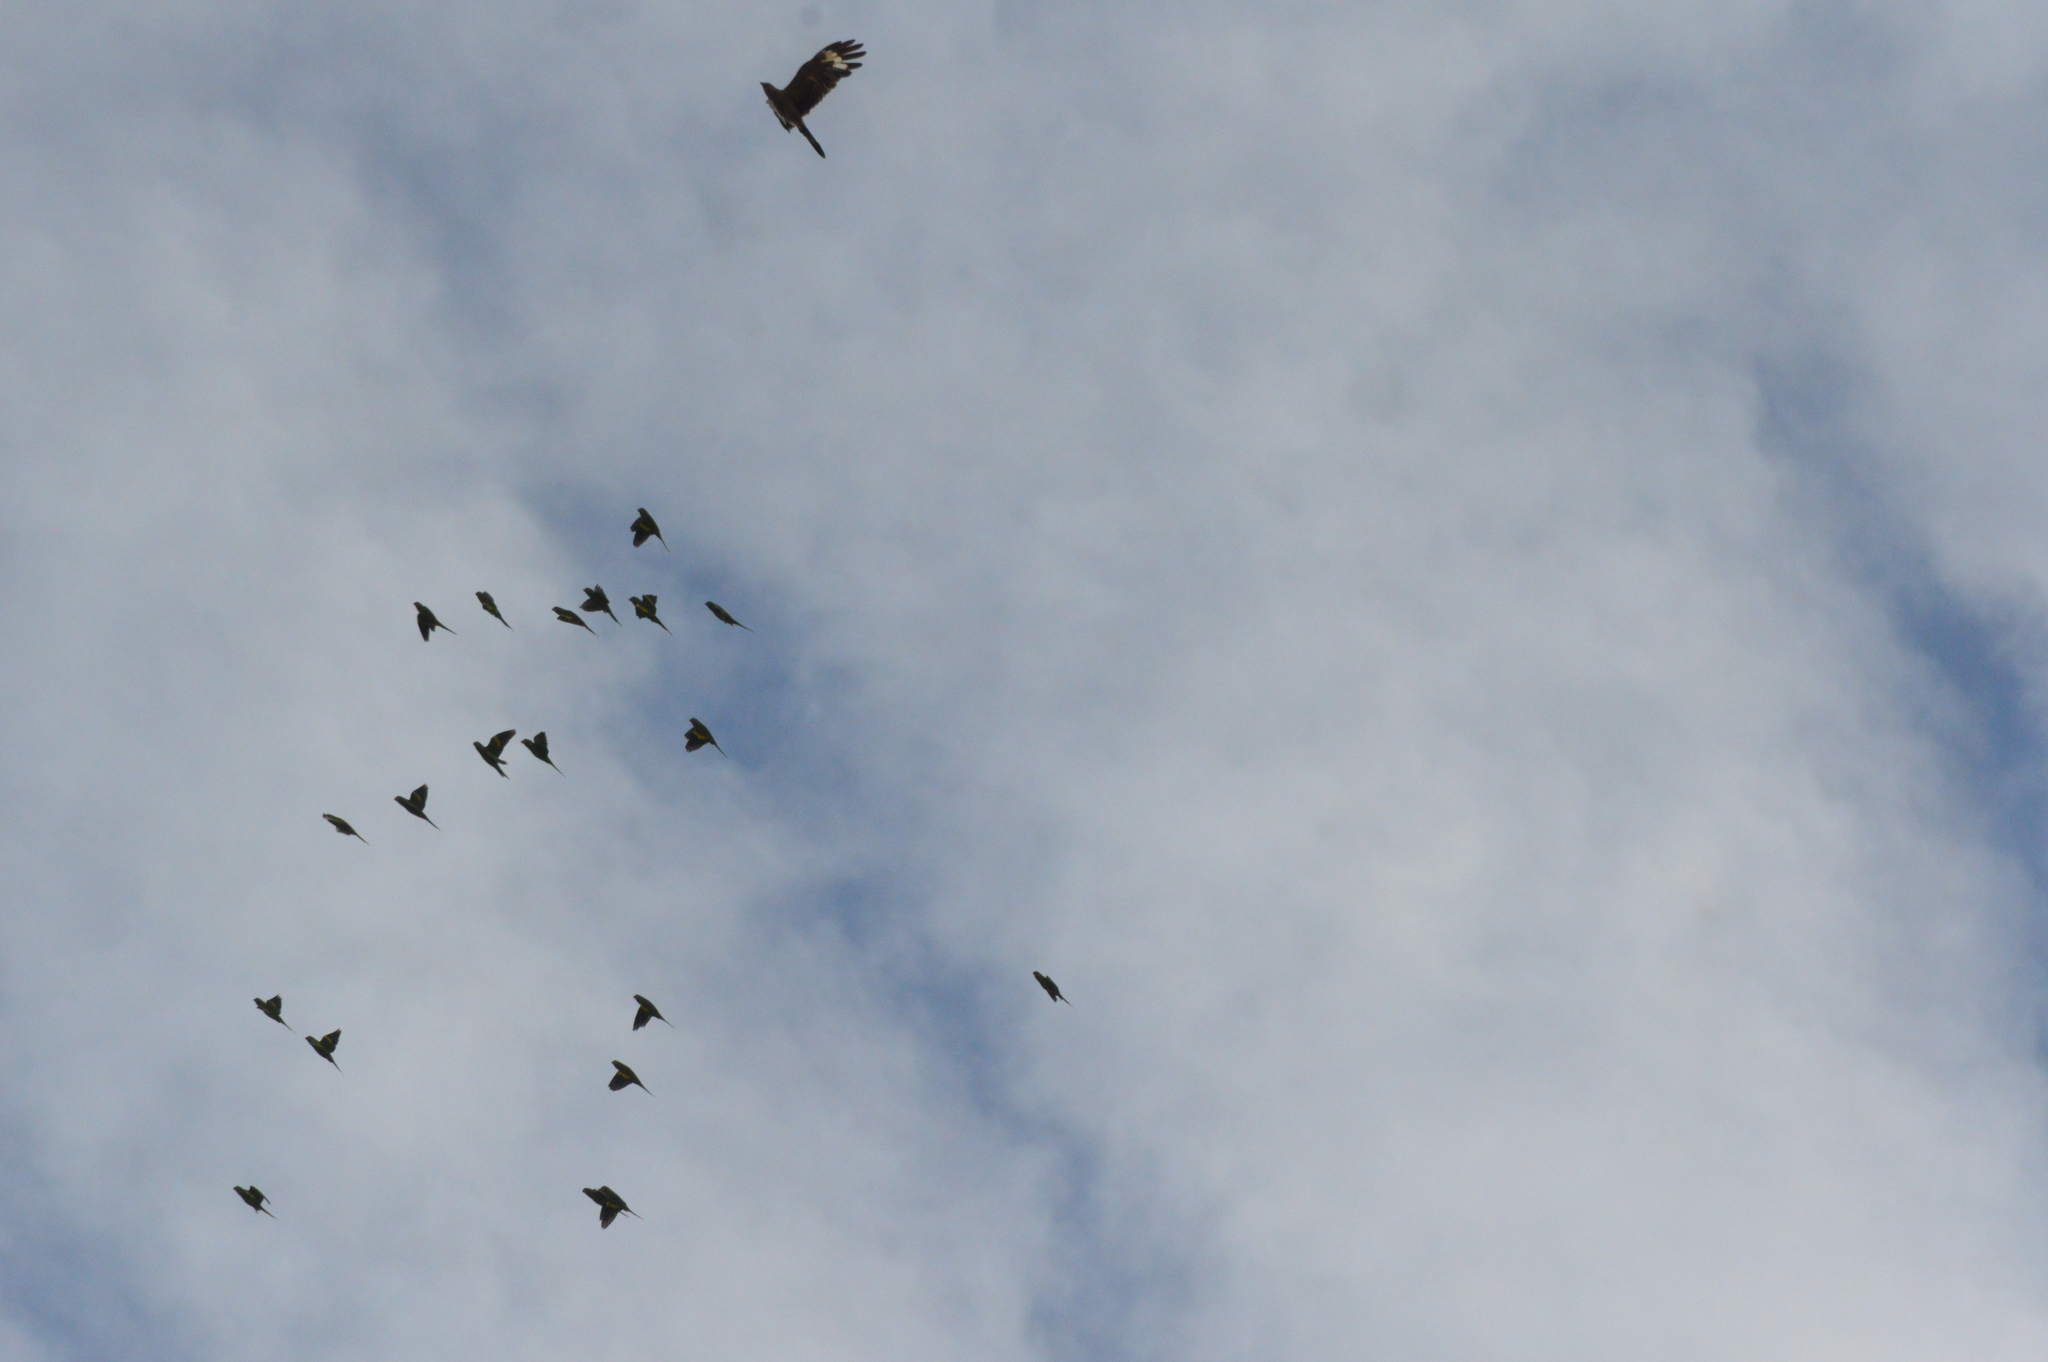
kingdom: Animalia
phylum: Chordata
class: Aves
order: Falconiformes
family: Falconidae
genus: Daptrius
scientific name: Daptrius
